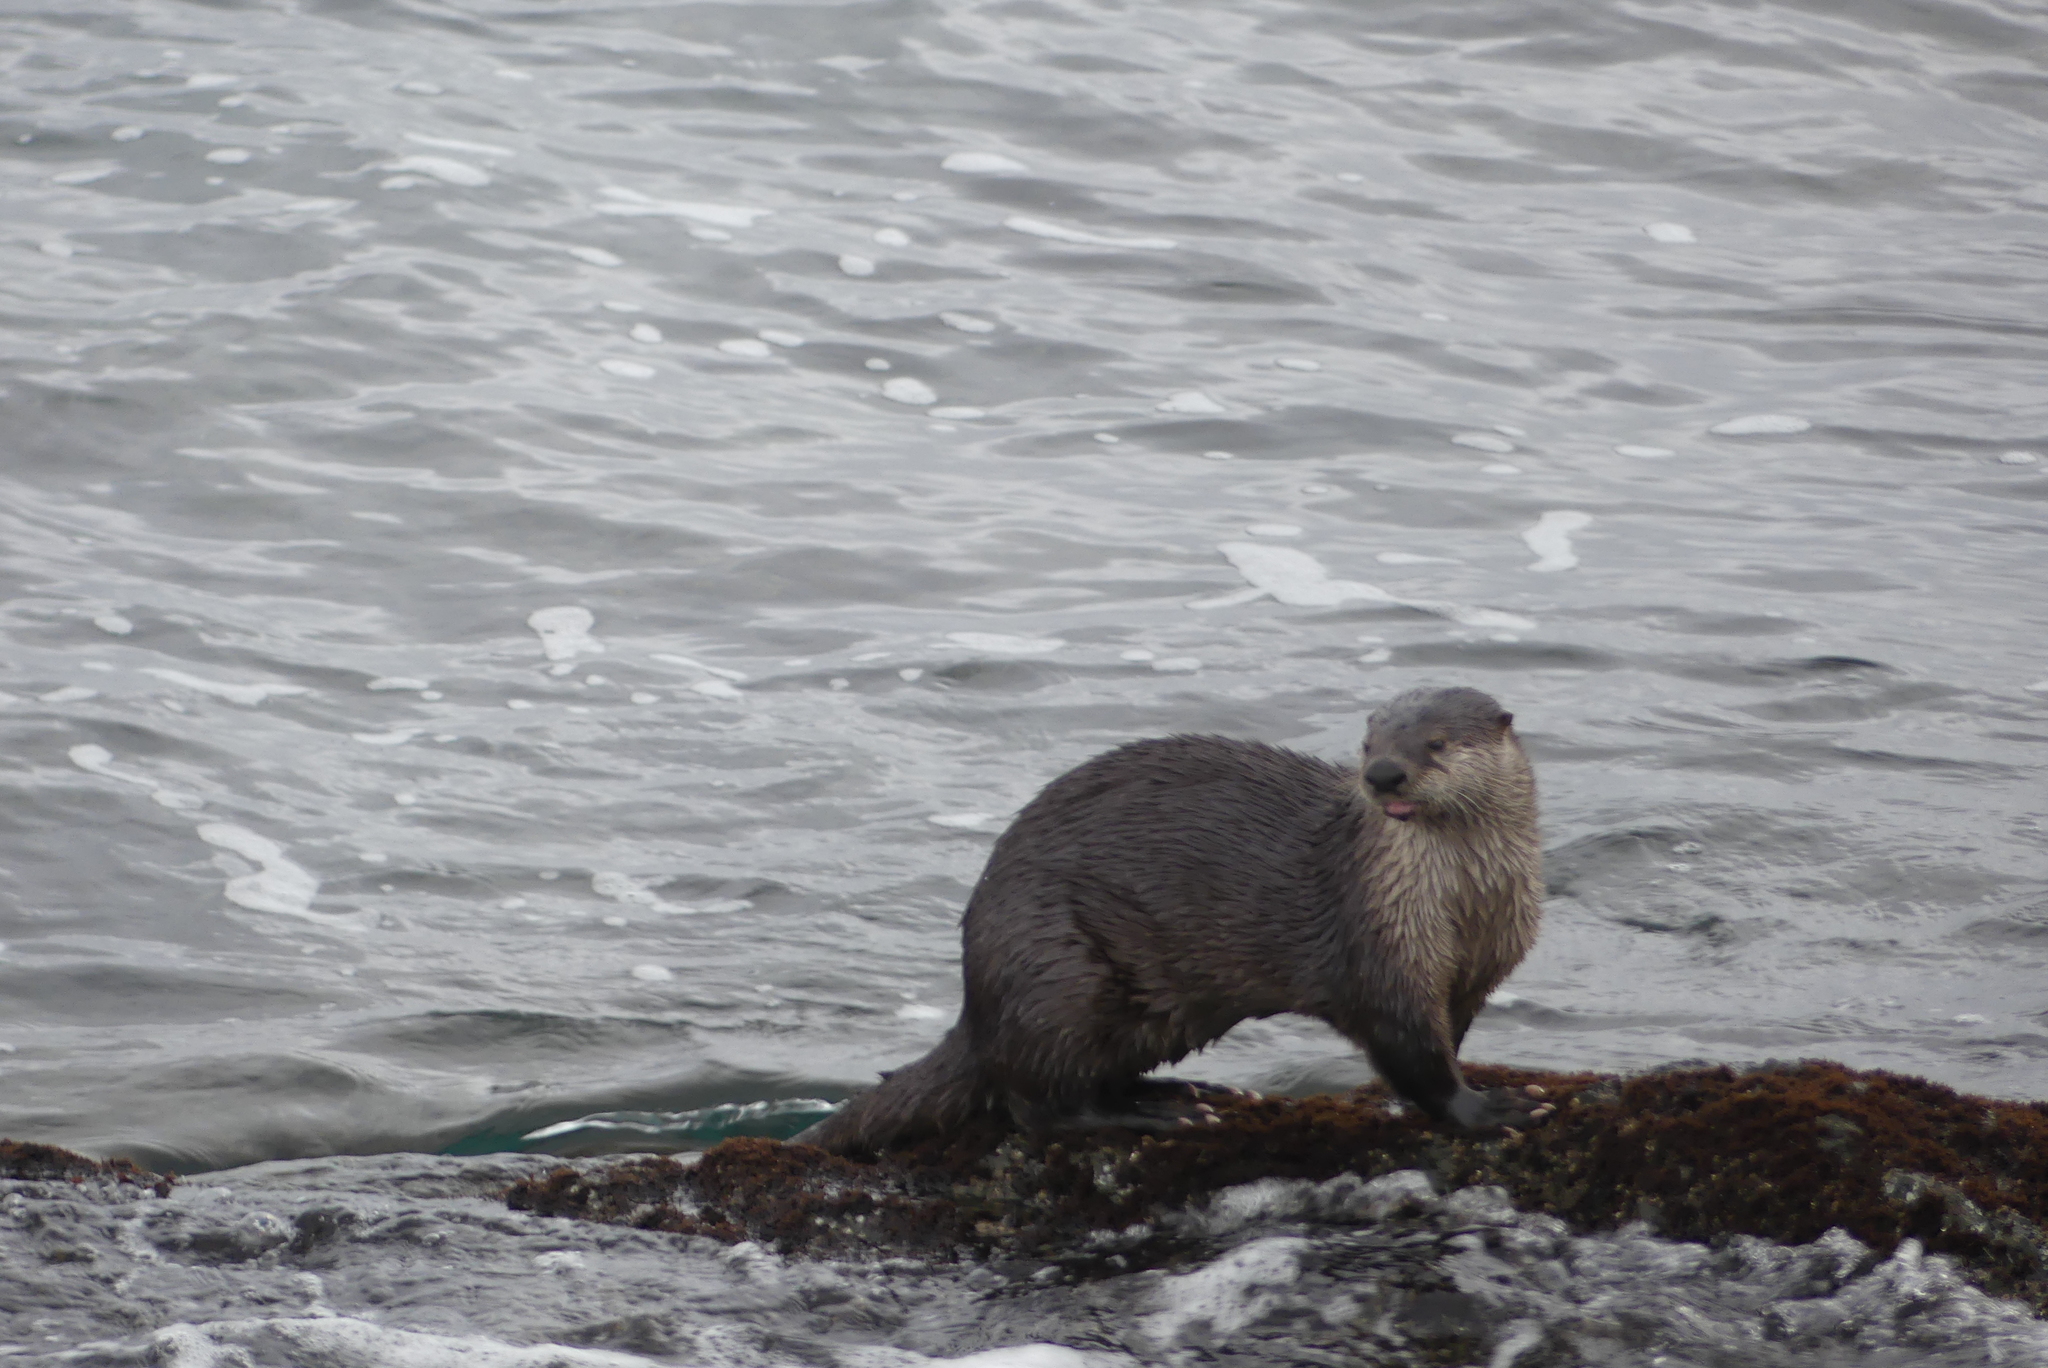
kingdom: Animalia
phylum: Chordata
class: Mammalia
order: Carnivora
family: Mustelidae
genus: Lontra
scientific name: Lontra canadensis
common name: North american river otter
